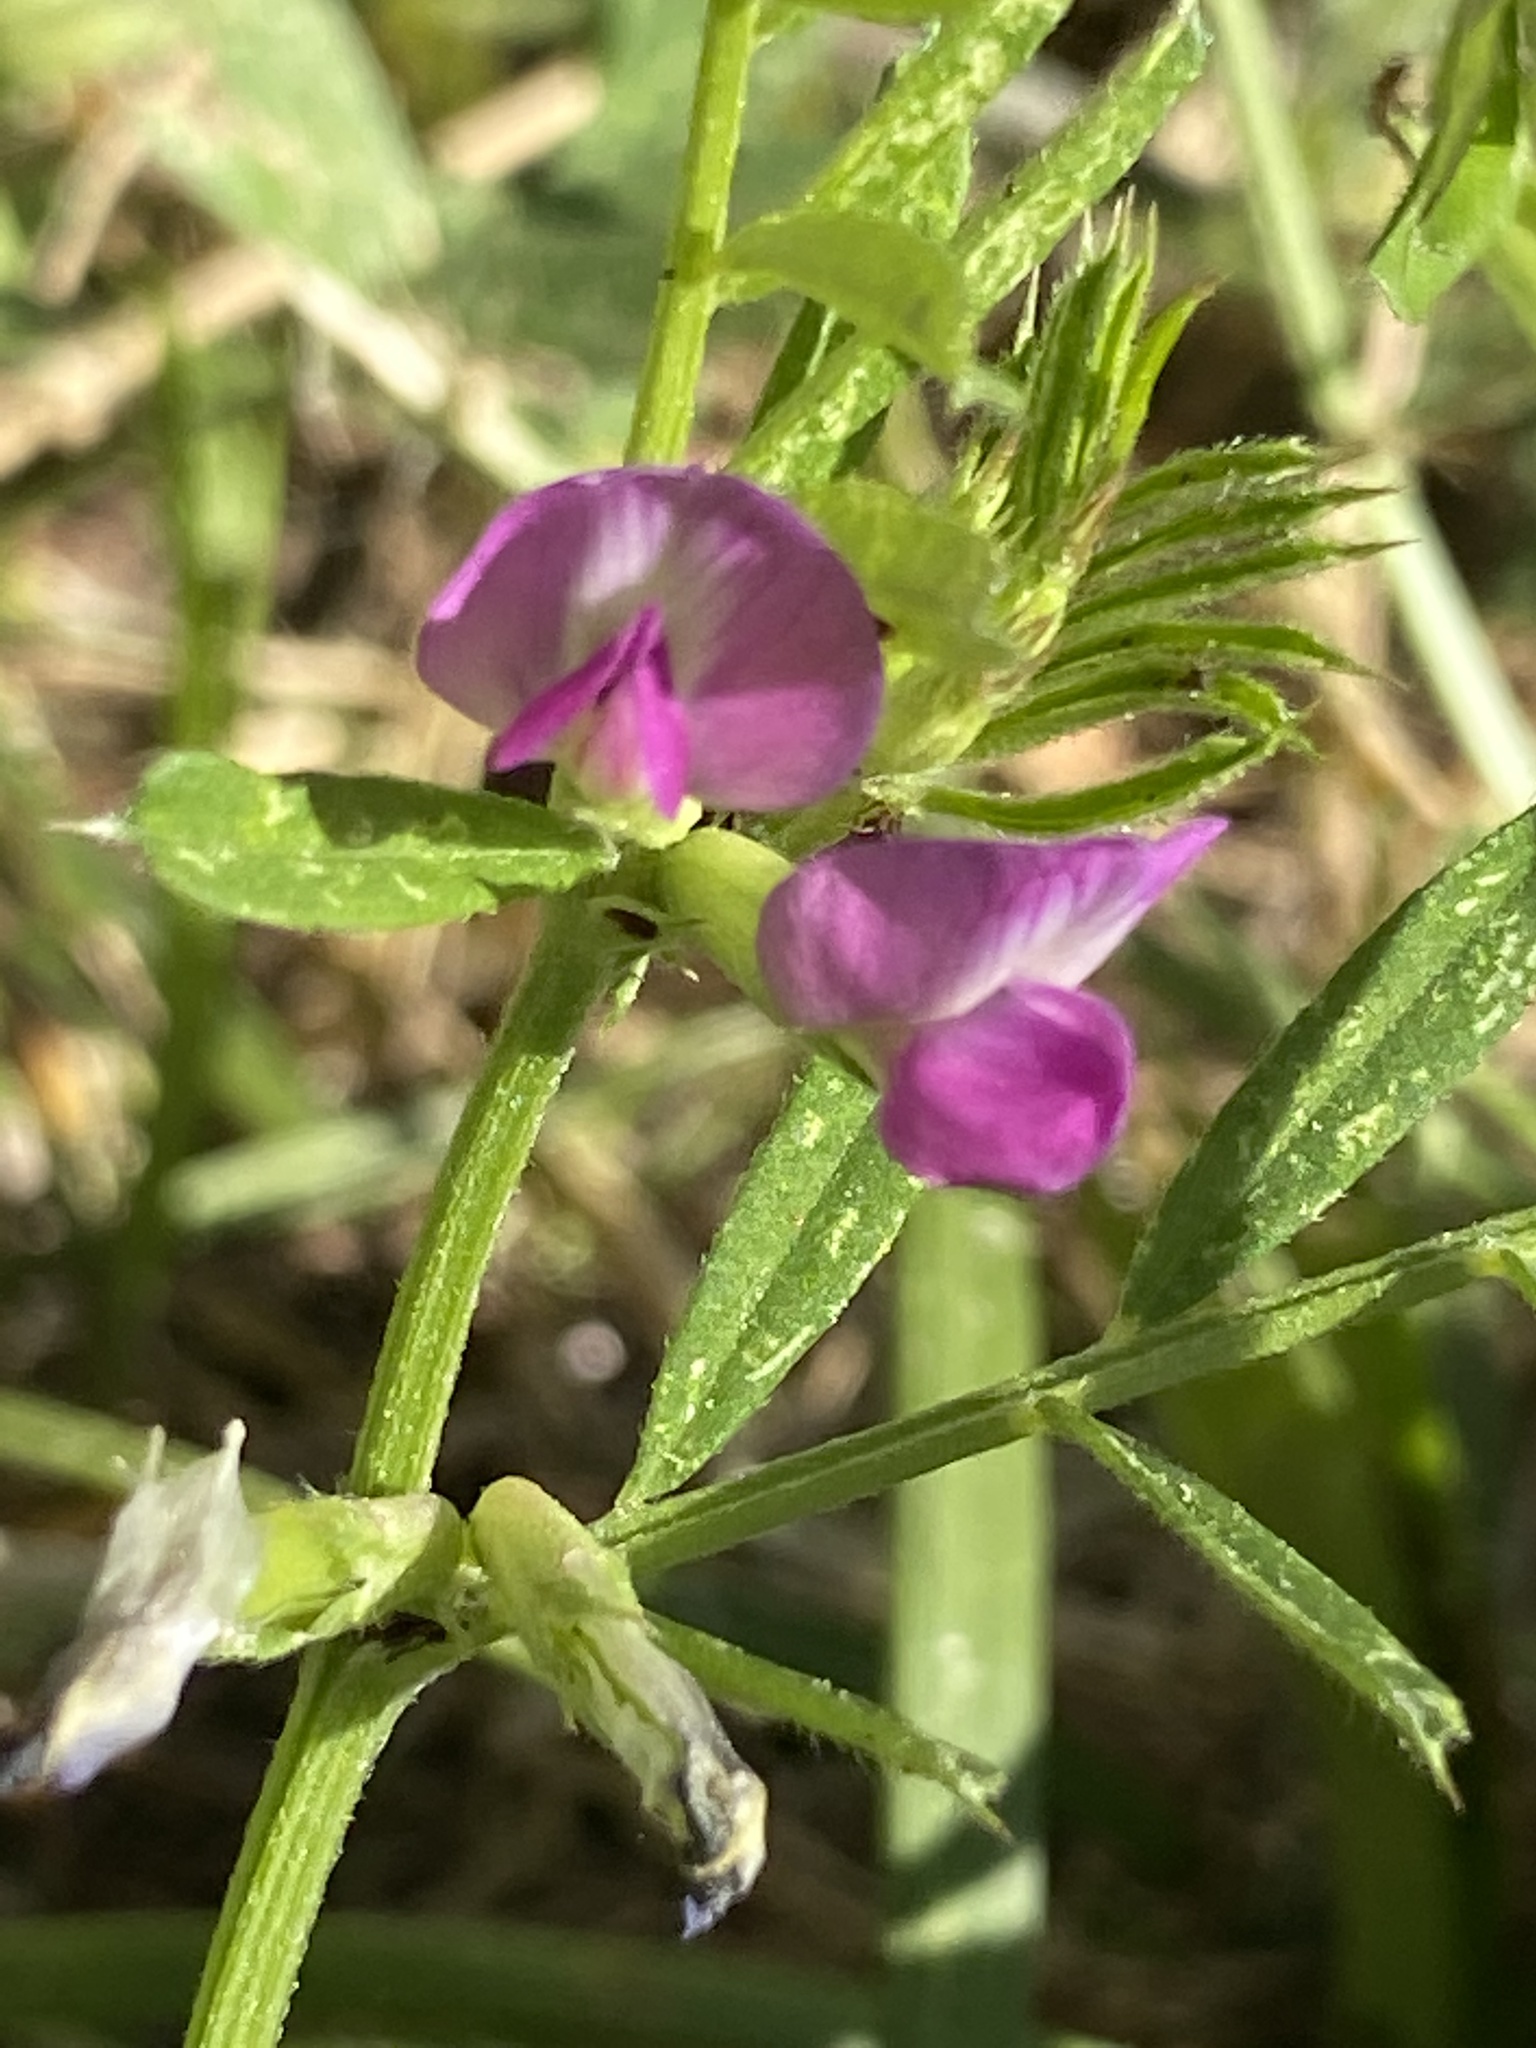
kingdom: Plantae
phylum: Tracheophyta
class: Magnoliopsida
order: Fabales
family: Fabaceae
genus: Vicia
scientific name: Vicia sativa
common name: Garden vetch
